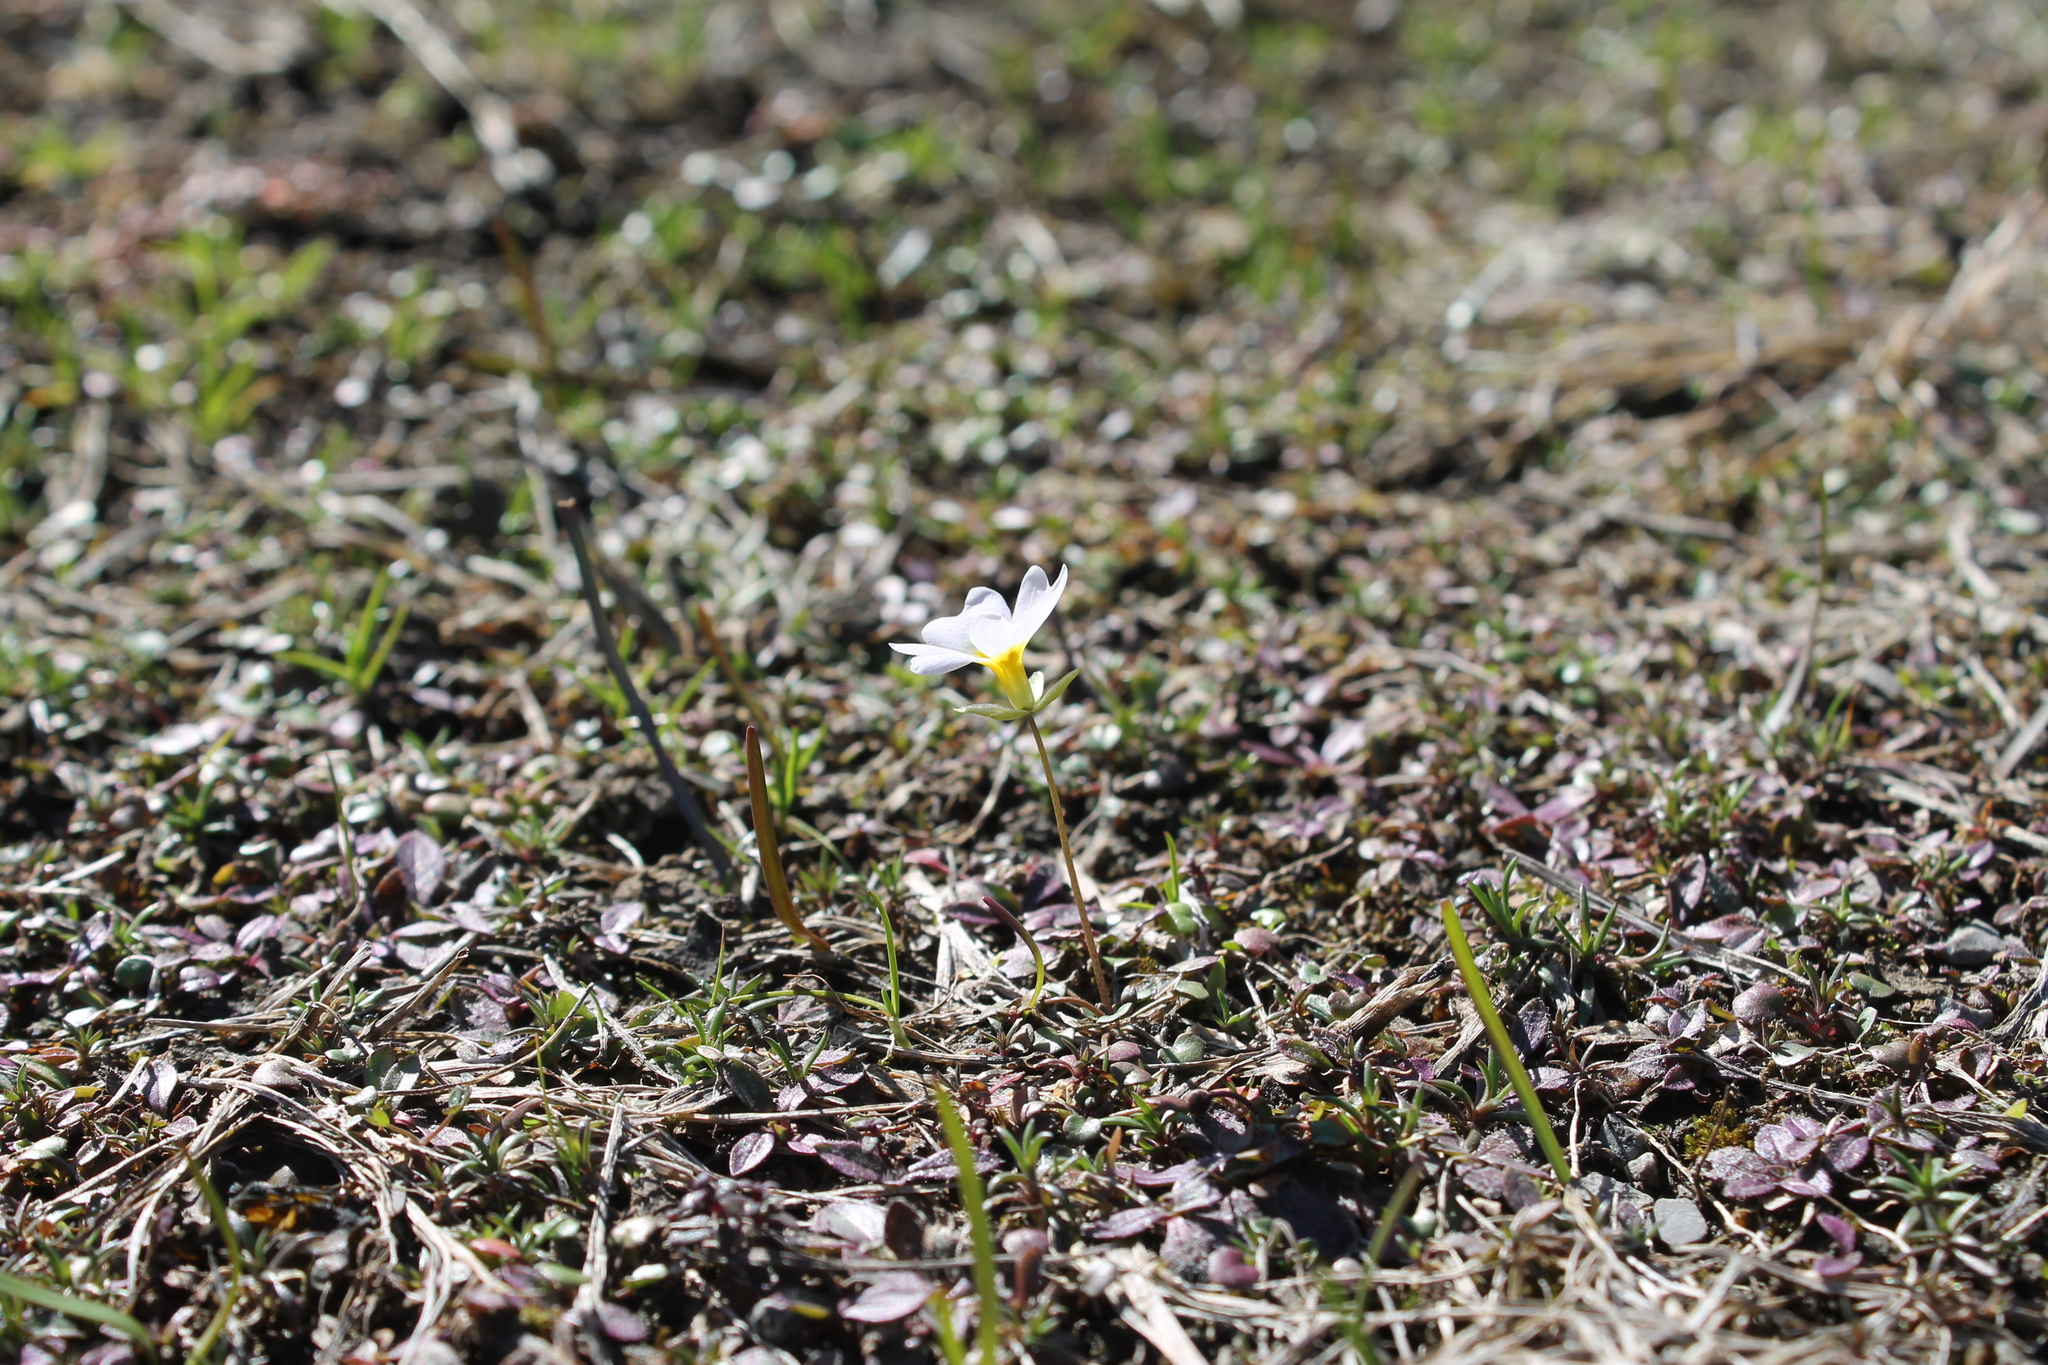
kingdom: Plantae
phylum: Tracheophyta
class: Magnoliopsida
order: Brassicales
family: Brassicaceae
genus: Leavenworthia
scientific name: Leavenworthia stylosa
